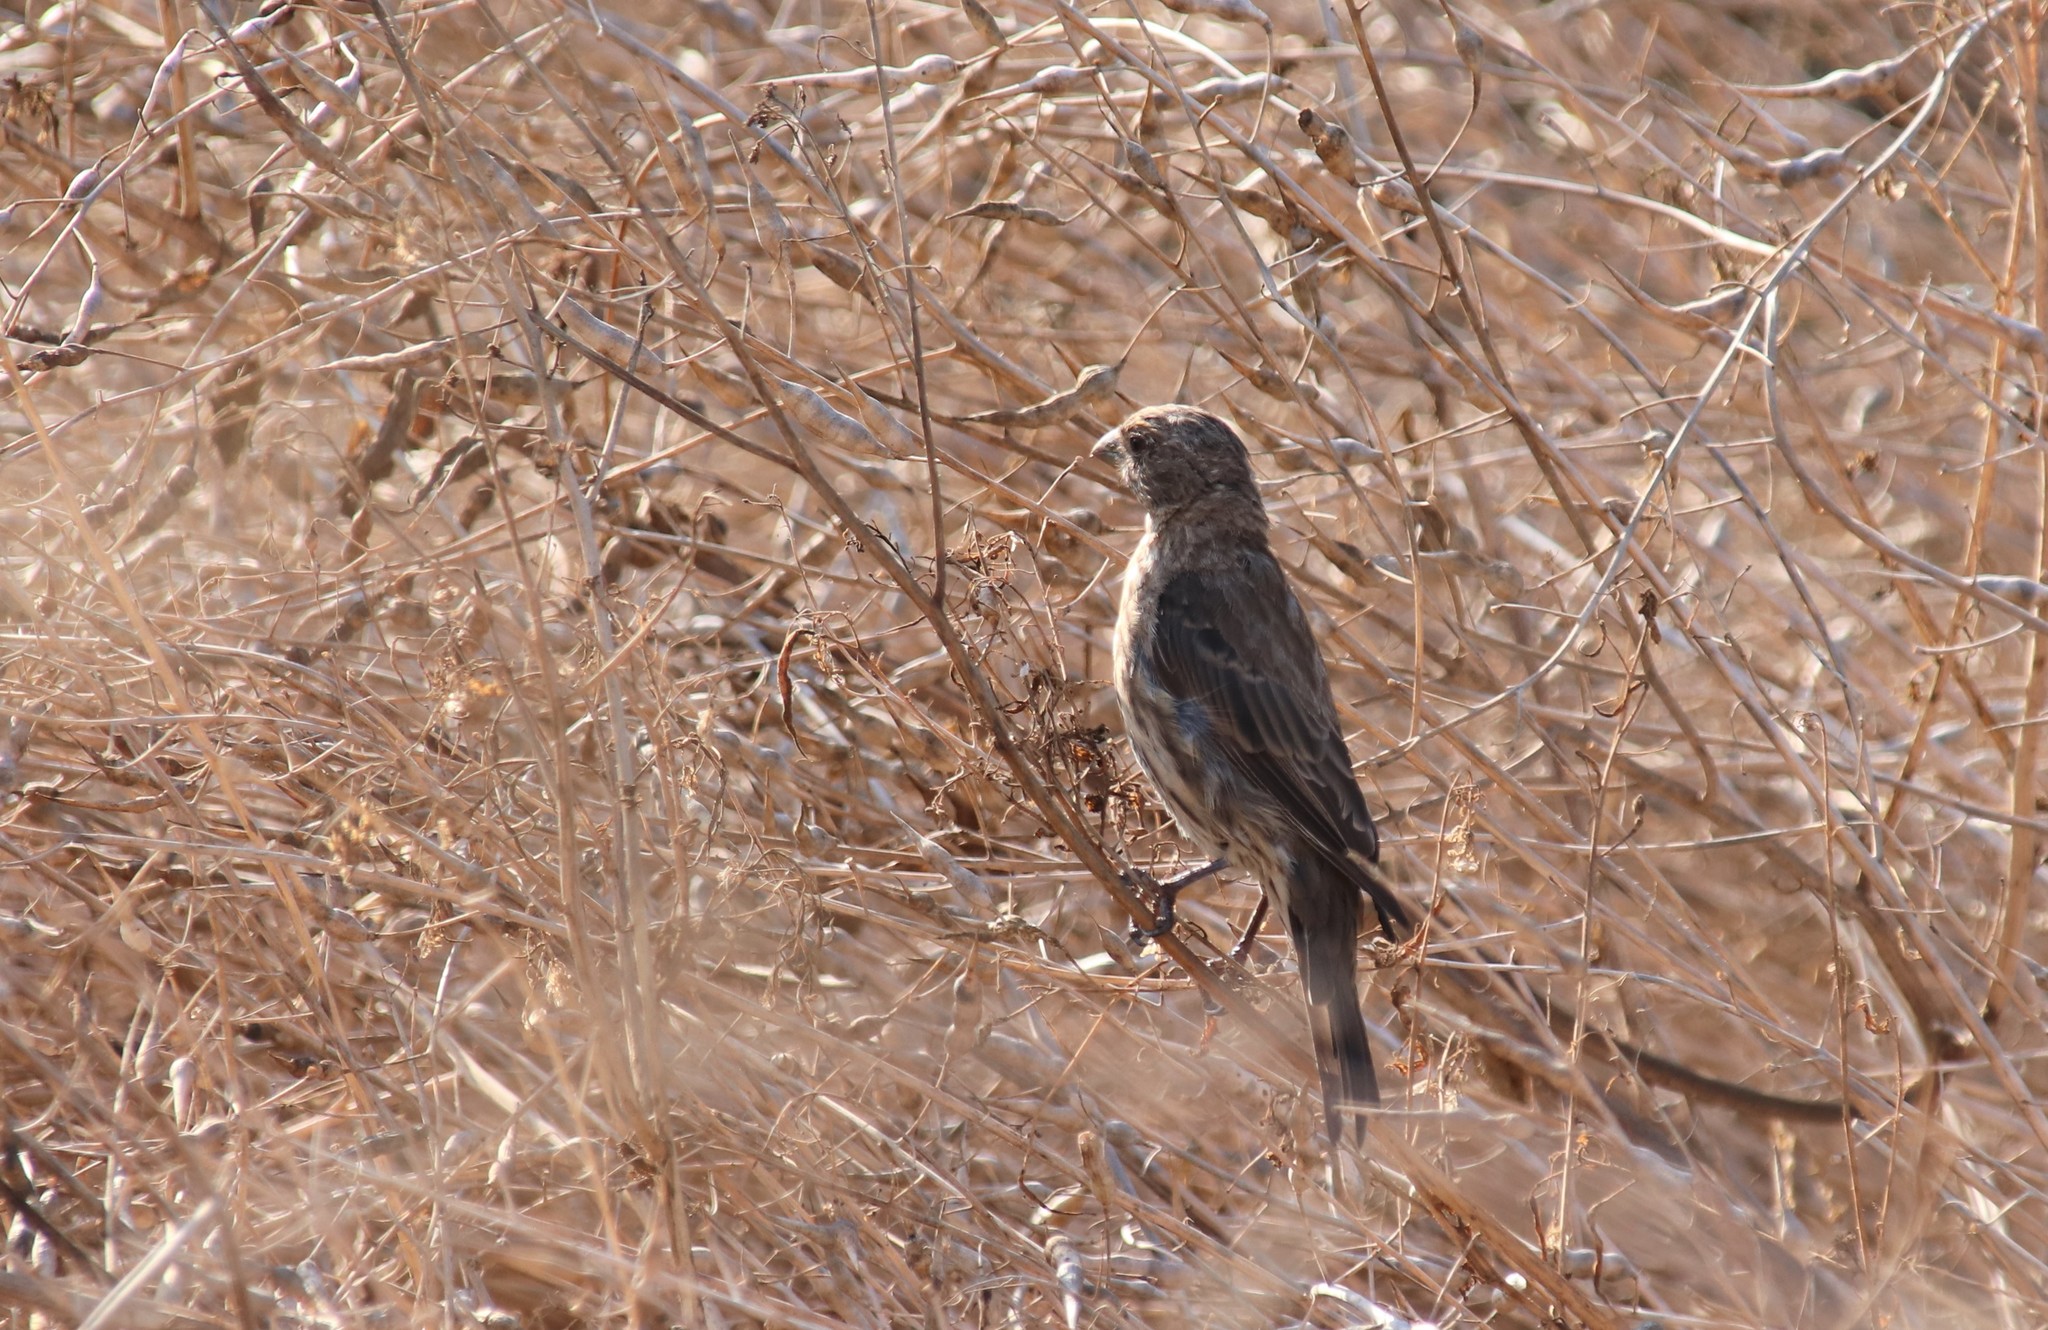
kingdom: Animalia
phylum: Chordata
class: Aves
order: Passeriformes
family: Fringillidae
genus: Haemorhous
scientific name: Haemorhous mexicanus
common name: House finch
